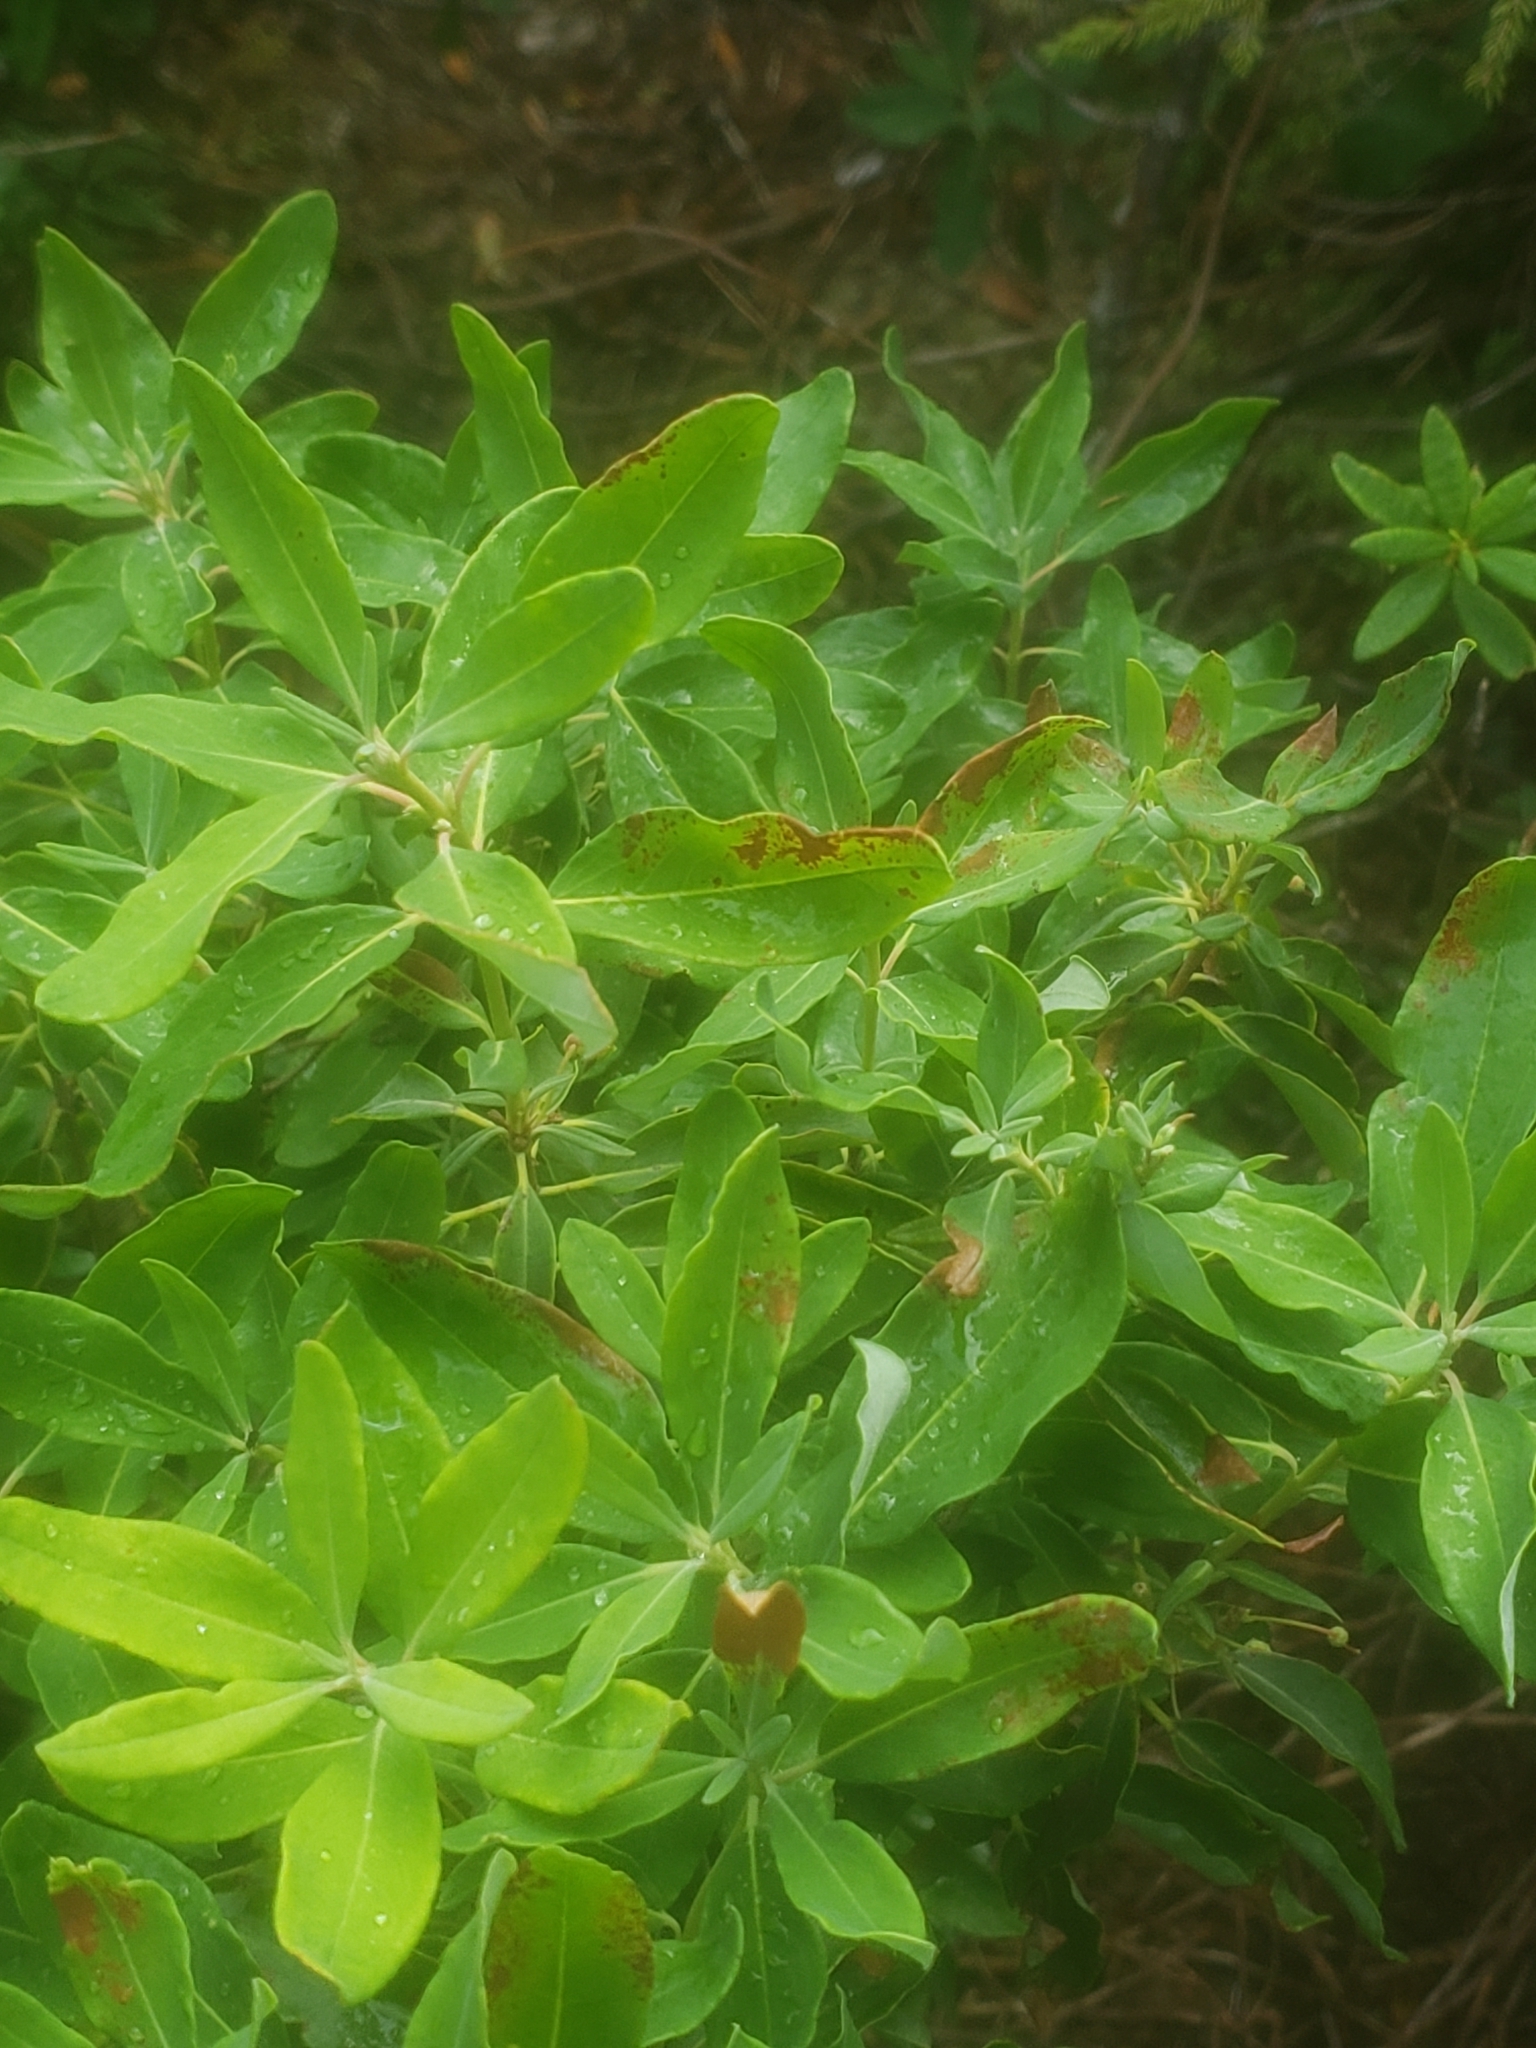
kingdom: Plantae
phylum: Tracheophyta
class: Magnoliopsida
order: Ericales
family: Ericaceae
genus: Kalmia
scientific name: Kalmia angustifolia
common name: Sheep-laurel
